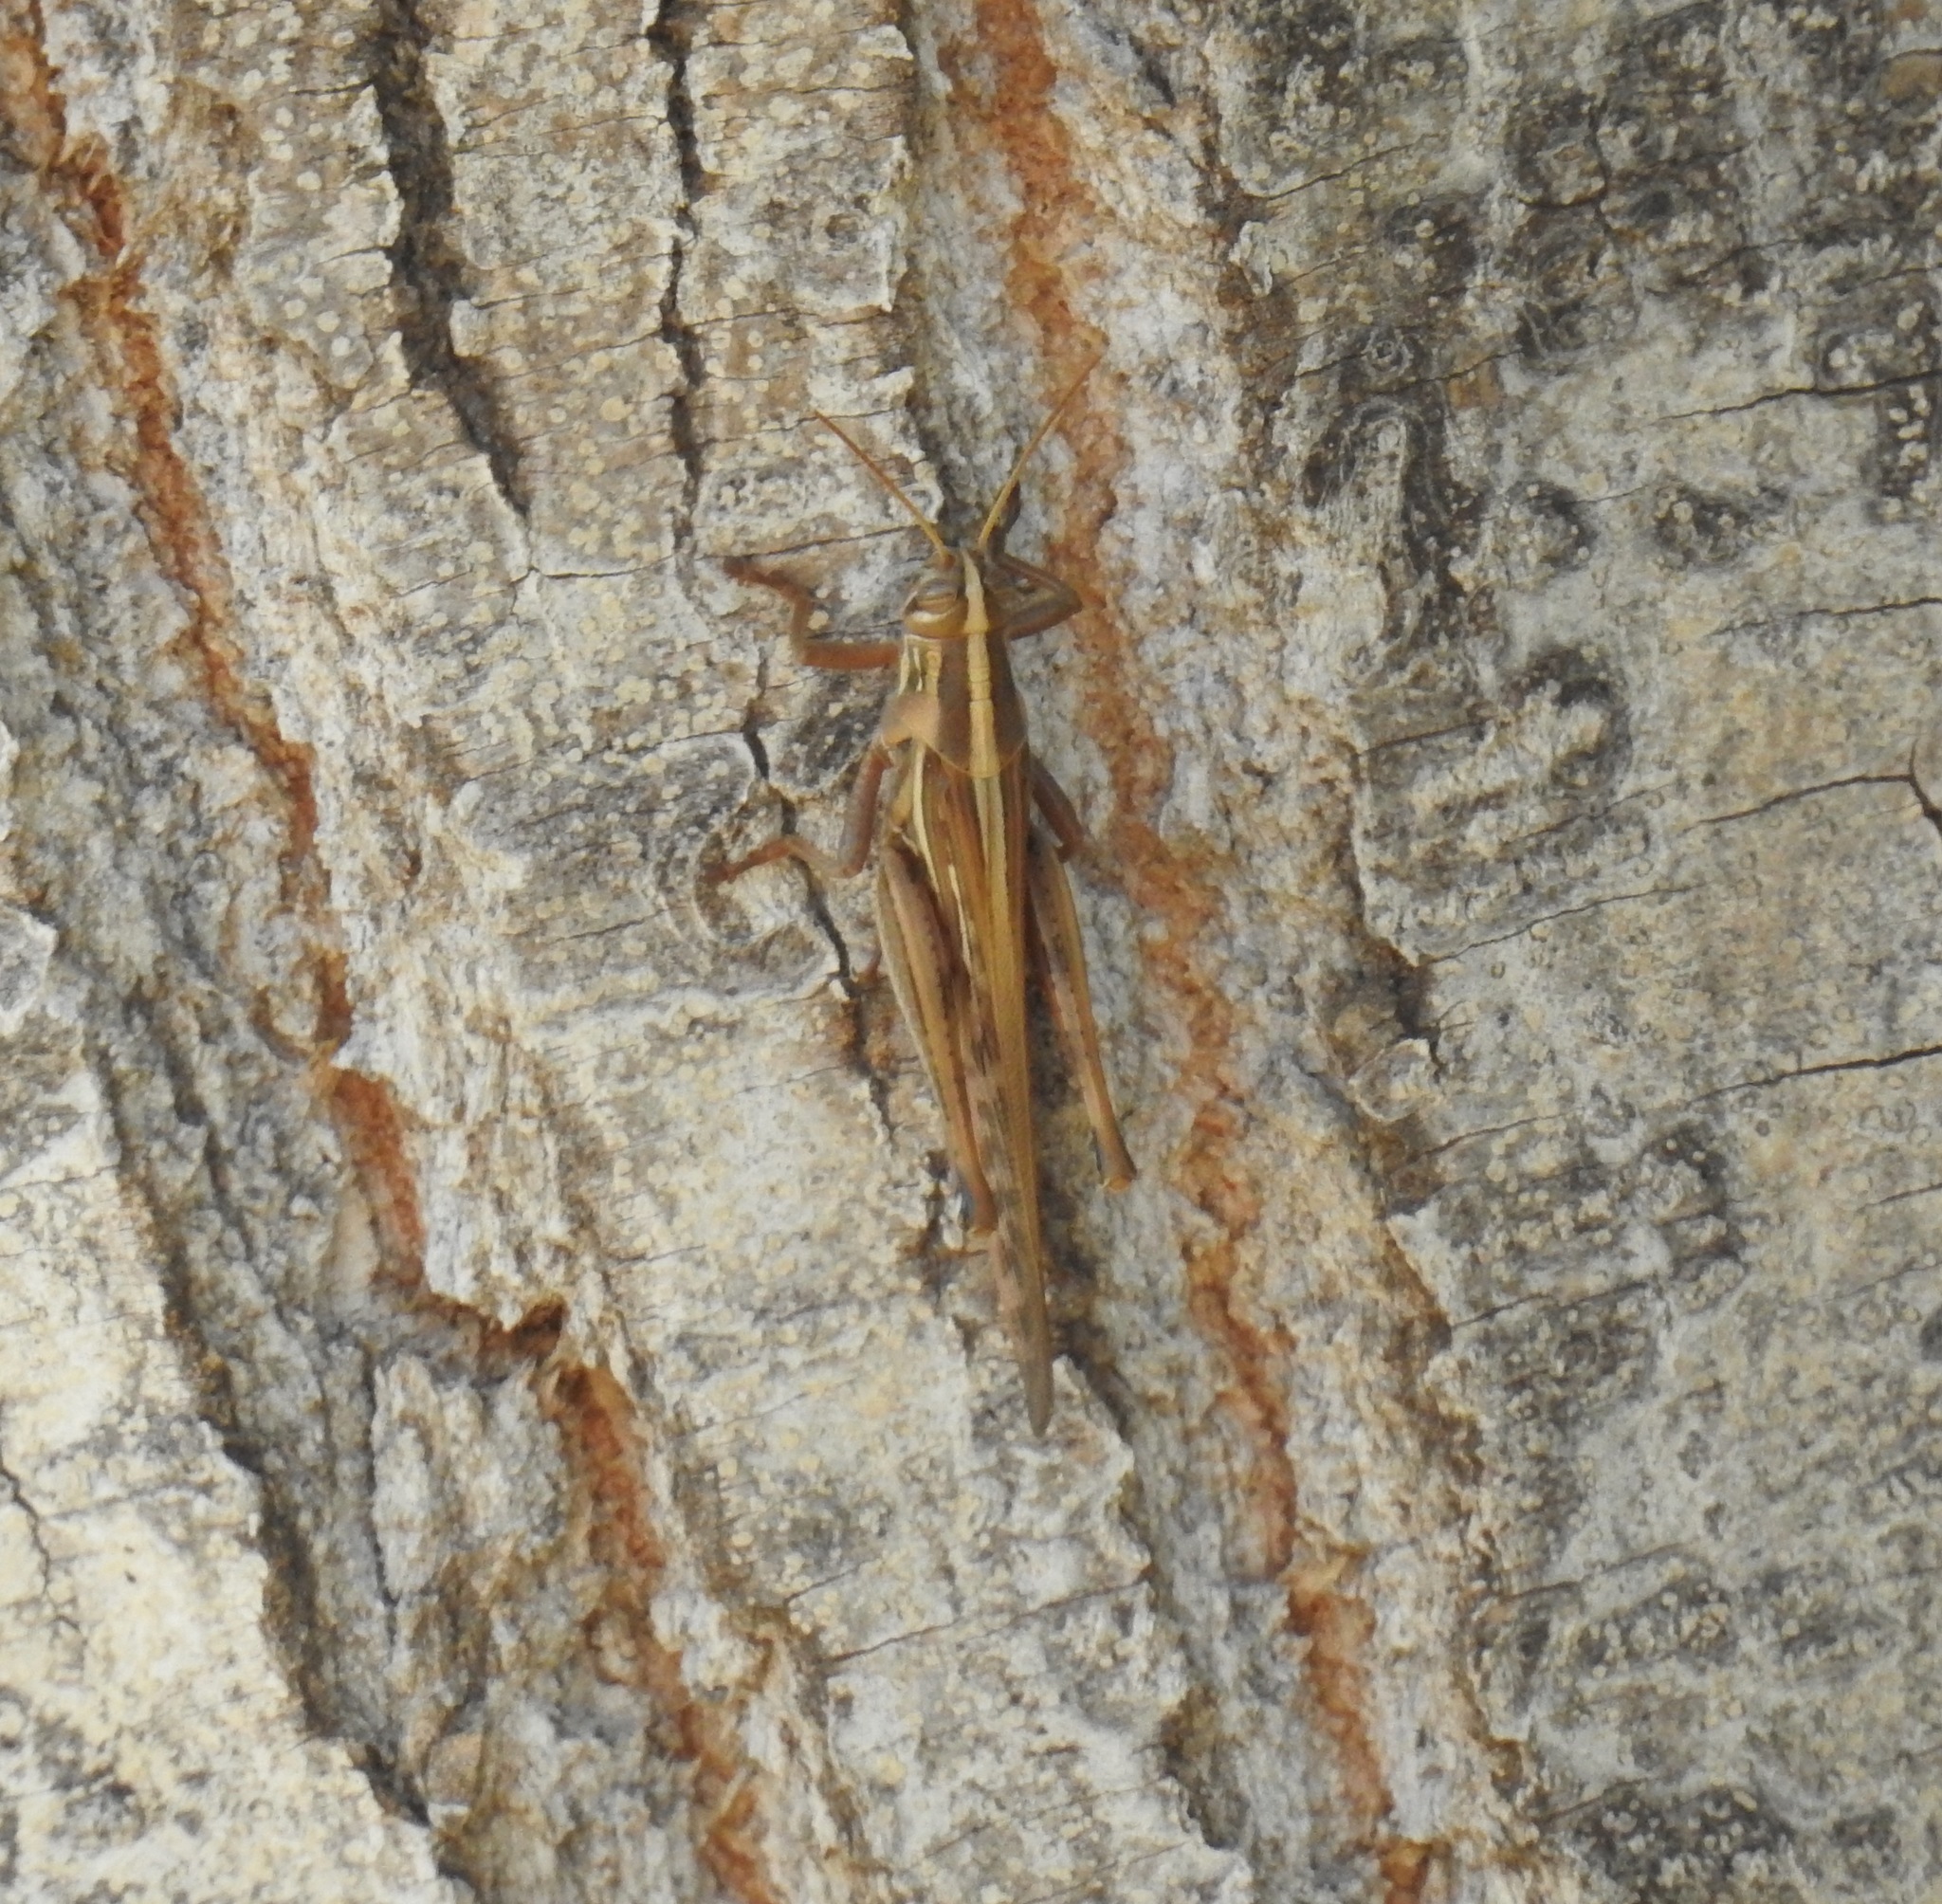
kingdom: Animalia
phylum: Arthropoda
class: Insecta
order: Orthoptera
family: Acrididae
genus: Schistocerca
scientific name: Schistocerca americana
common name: American bird locust
